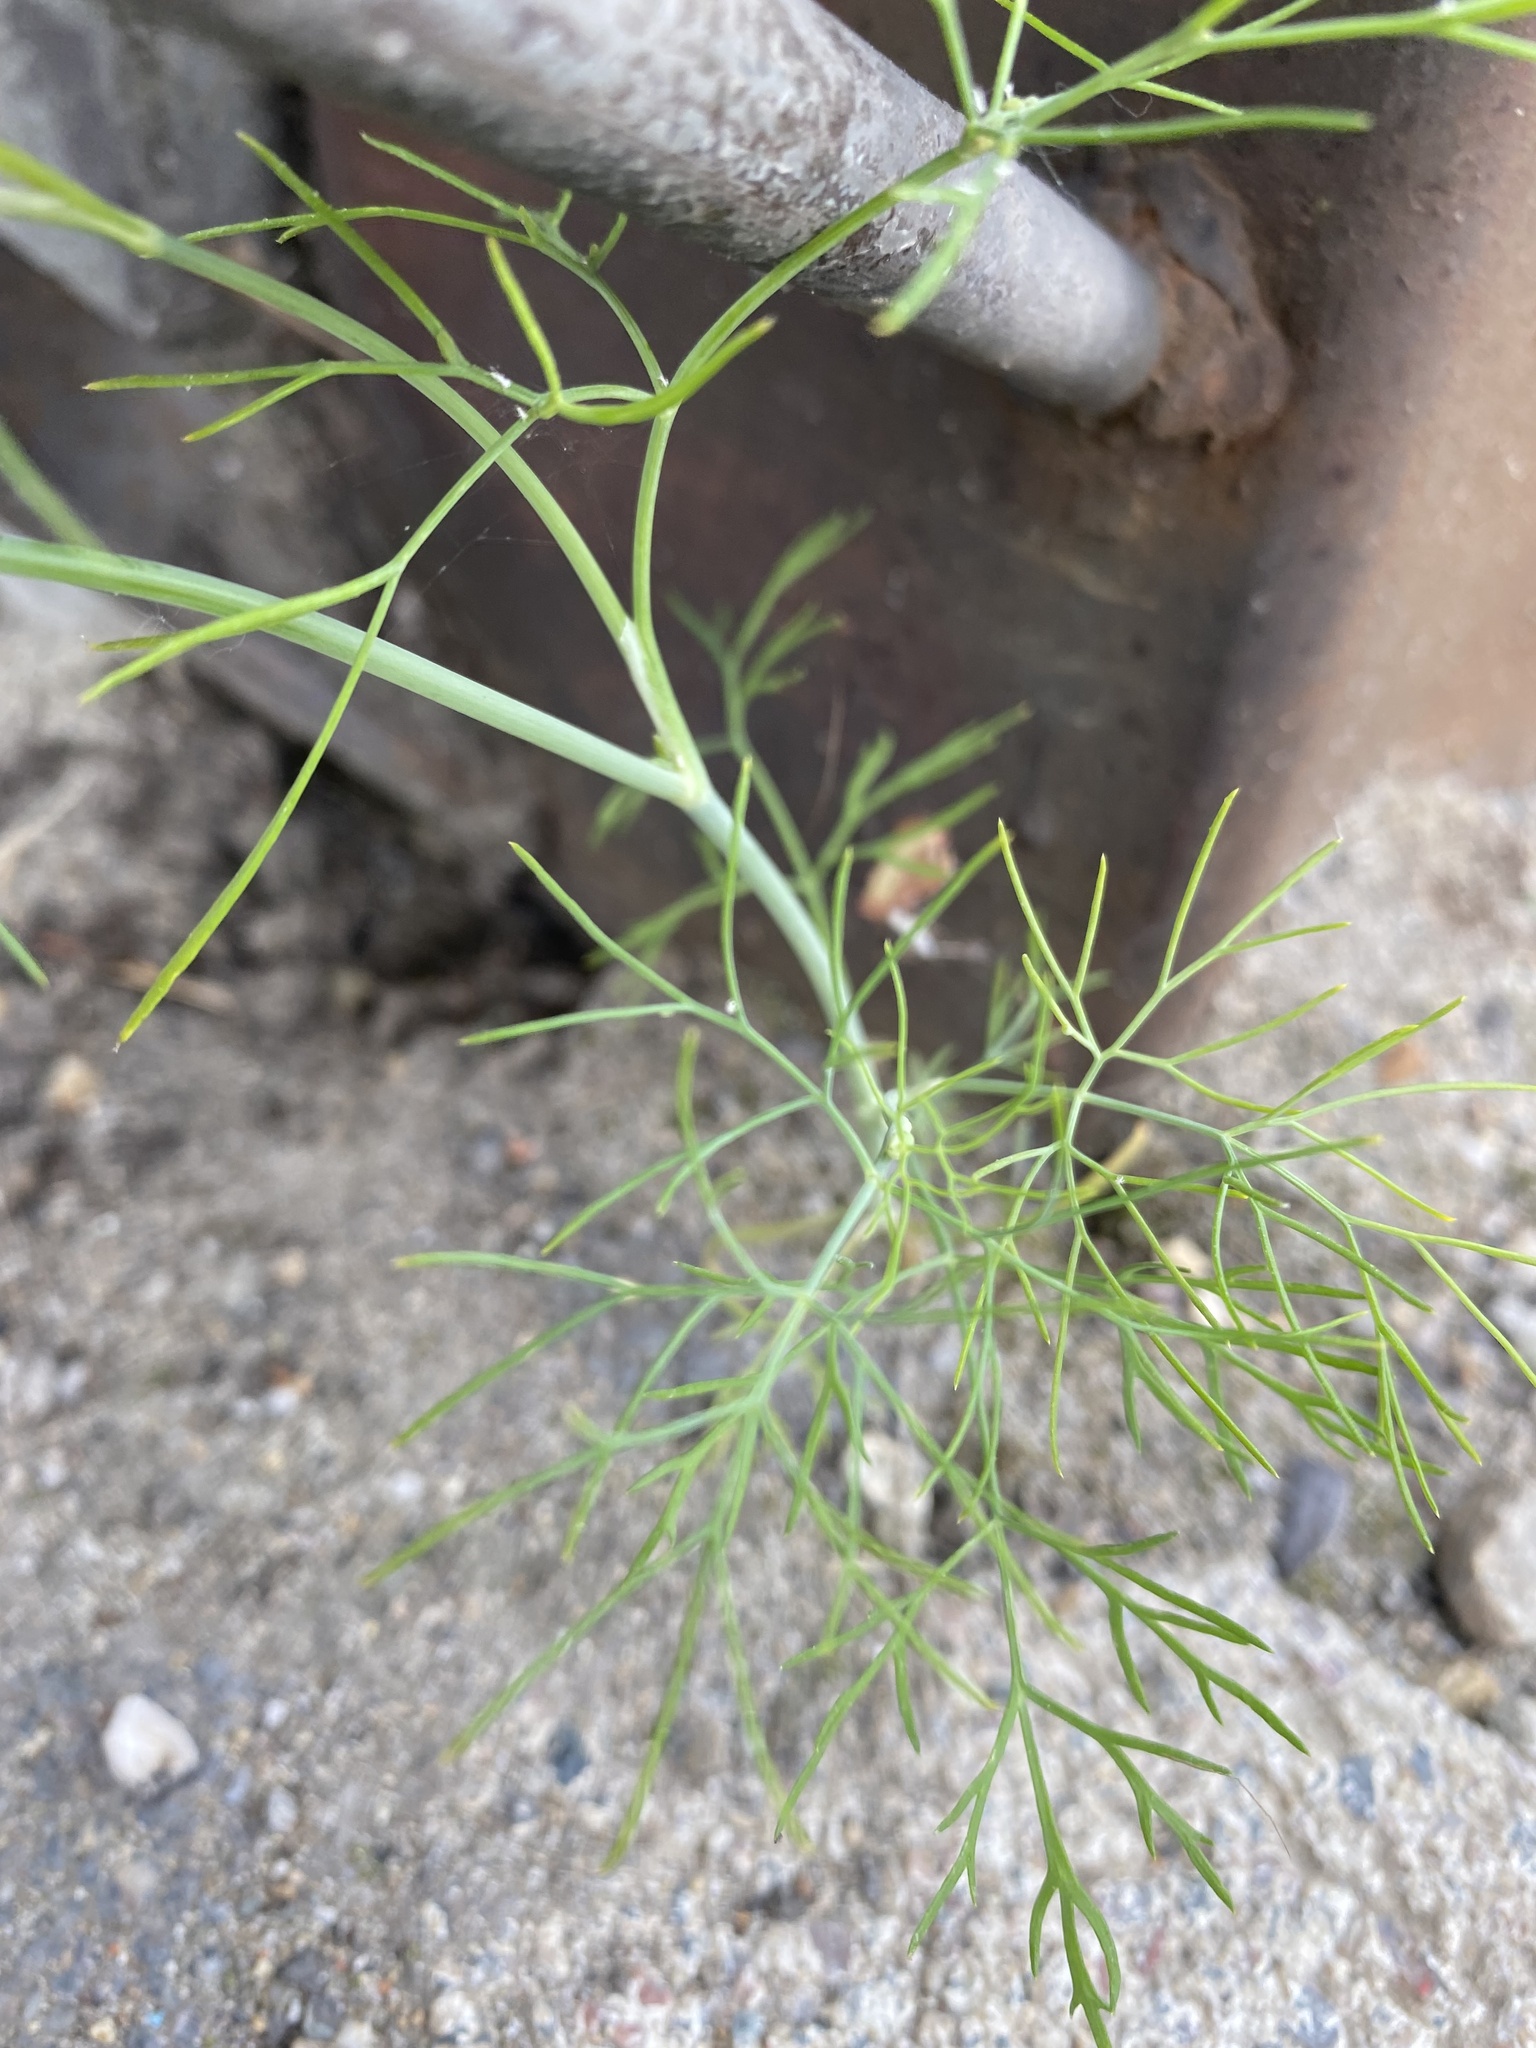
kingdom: Plantae
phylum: Tracheophyta
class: Magnoliopsida
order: Apiales
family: Apiaceae
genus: Anethum
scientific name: Anethum graveolens
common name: Dill
